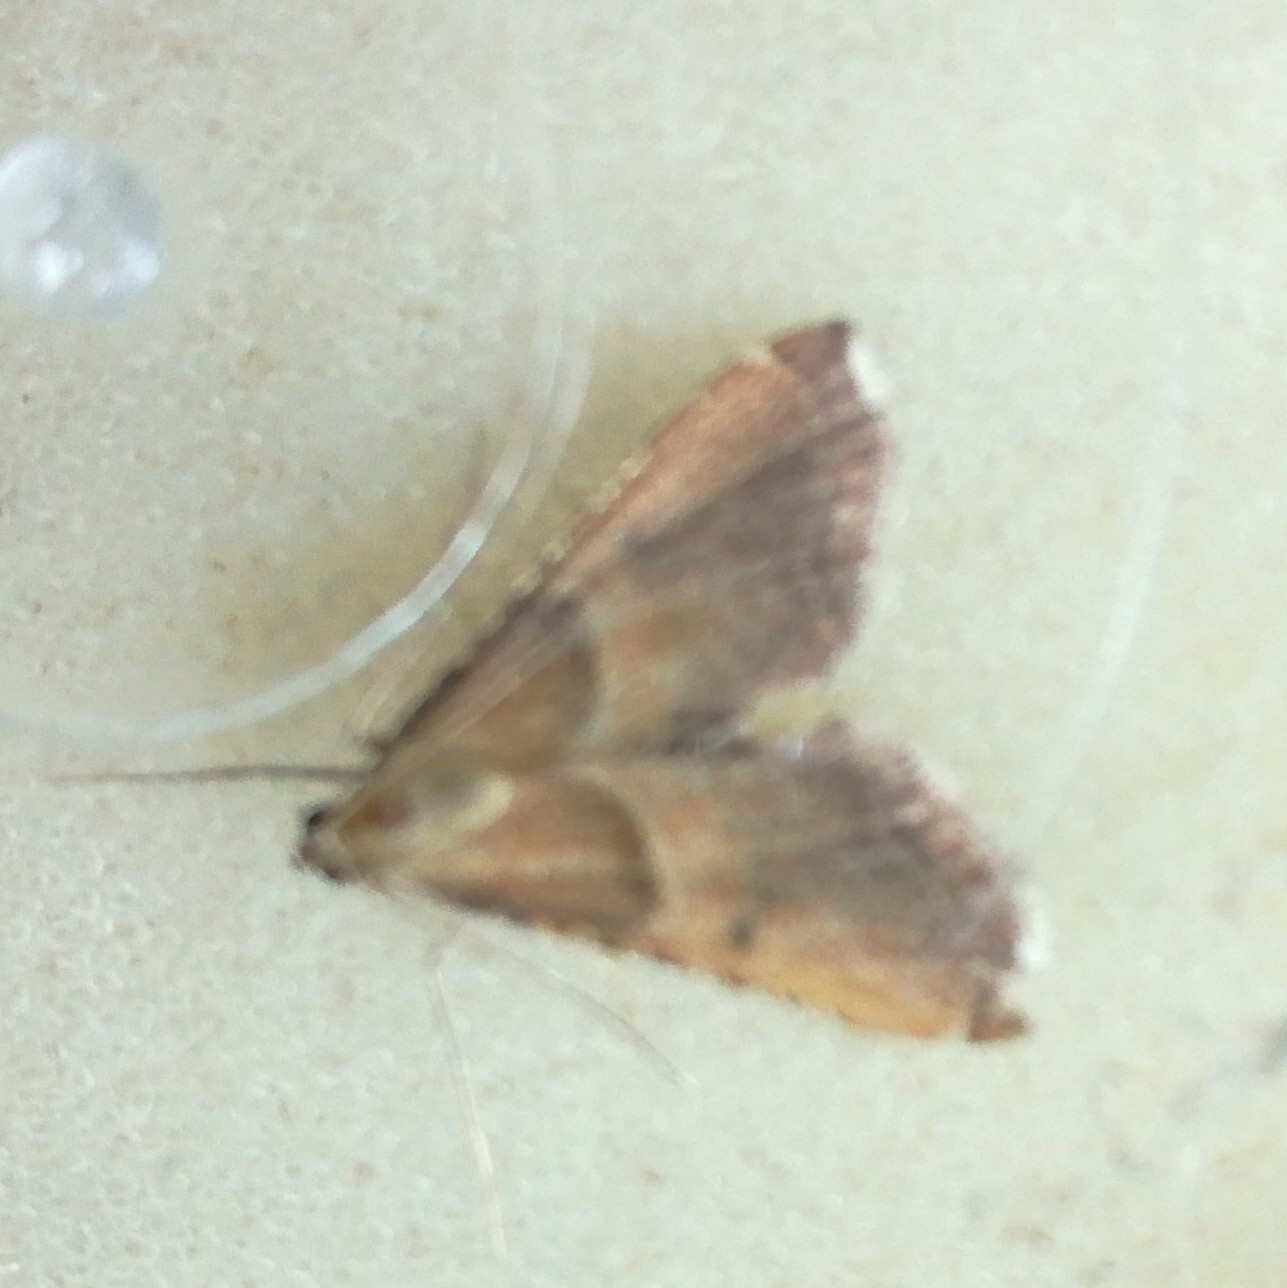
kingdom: Animalia
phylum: Arthropoda
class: Insecta
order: Lepidoptera
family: Pyralidae
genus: Endotricha
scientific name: Endotricha flammealis
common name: Rosy tabby
